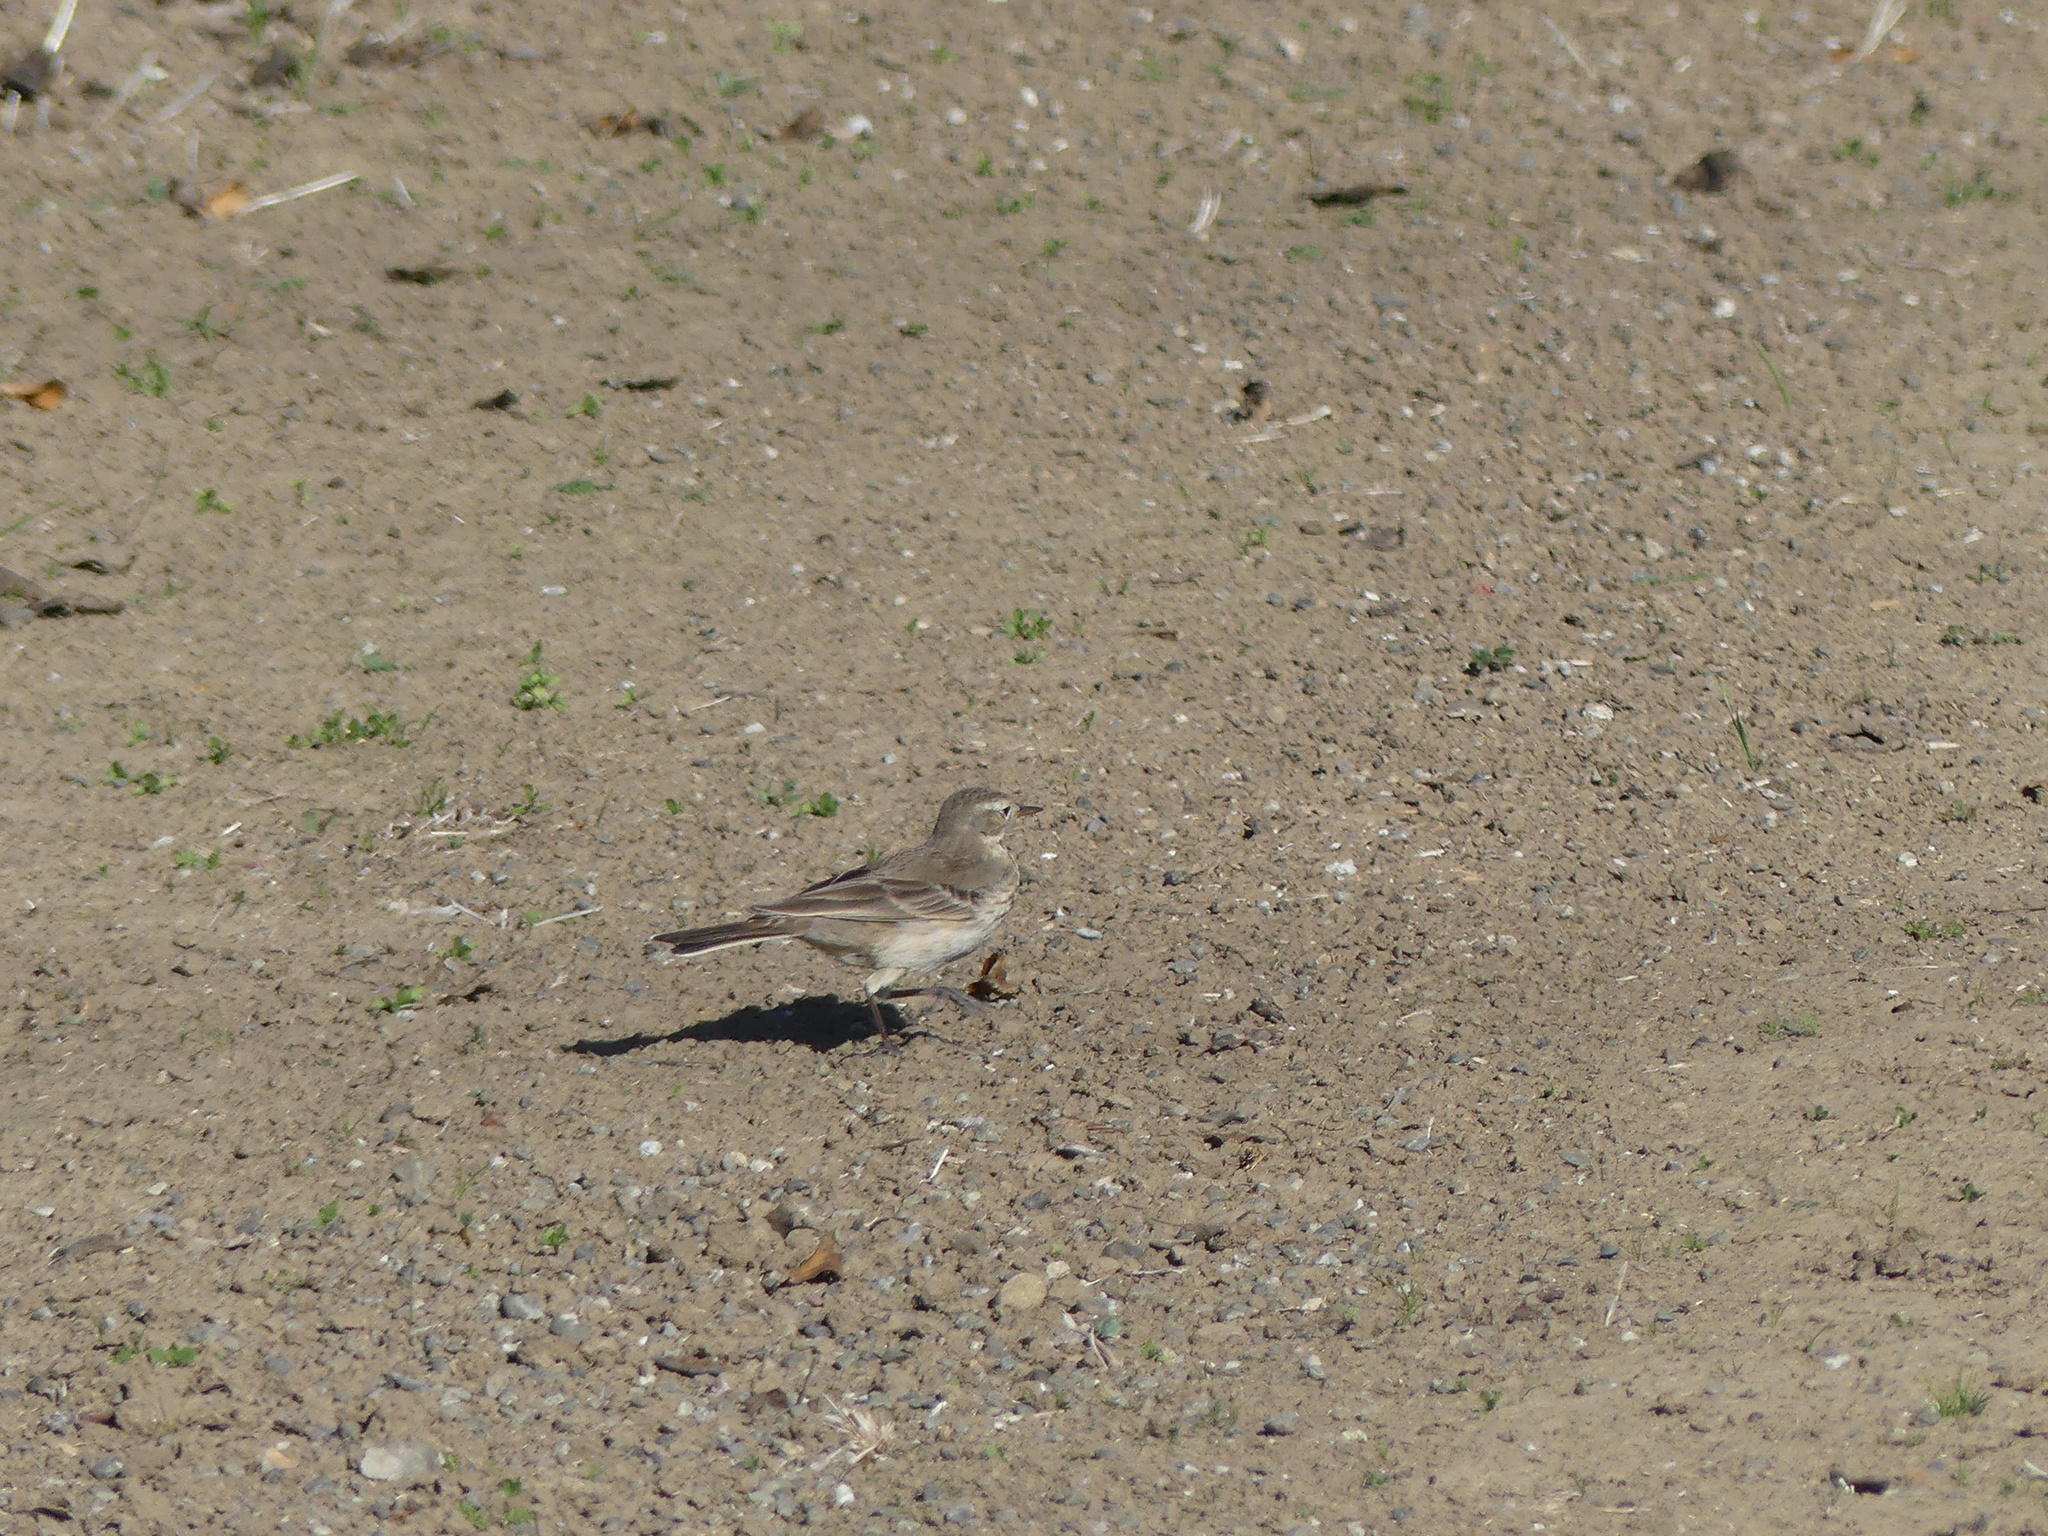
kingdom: Animalia
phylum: Chordata
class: Aves
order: Passeriformes
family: Motacillidae
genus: Anthus
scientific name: Anthus rubescens
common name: Buff-bellied pipit
